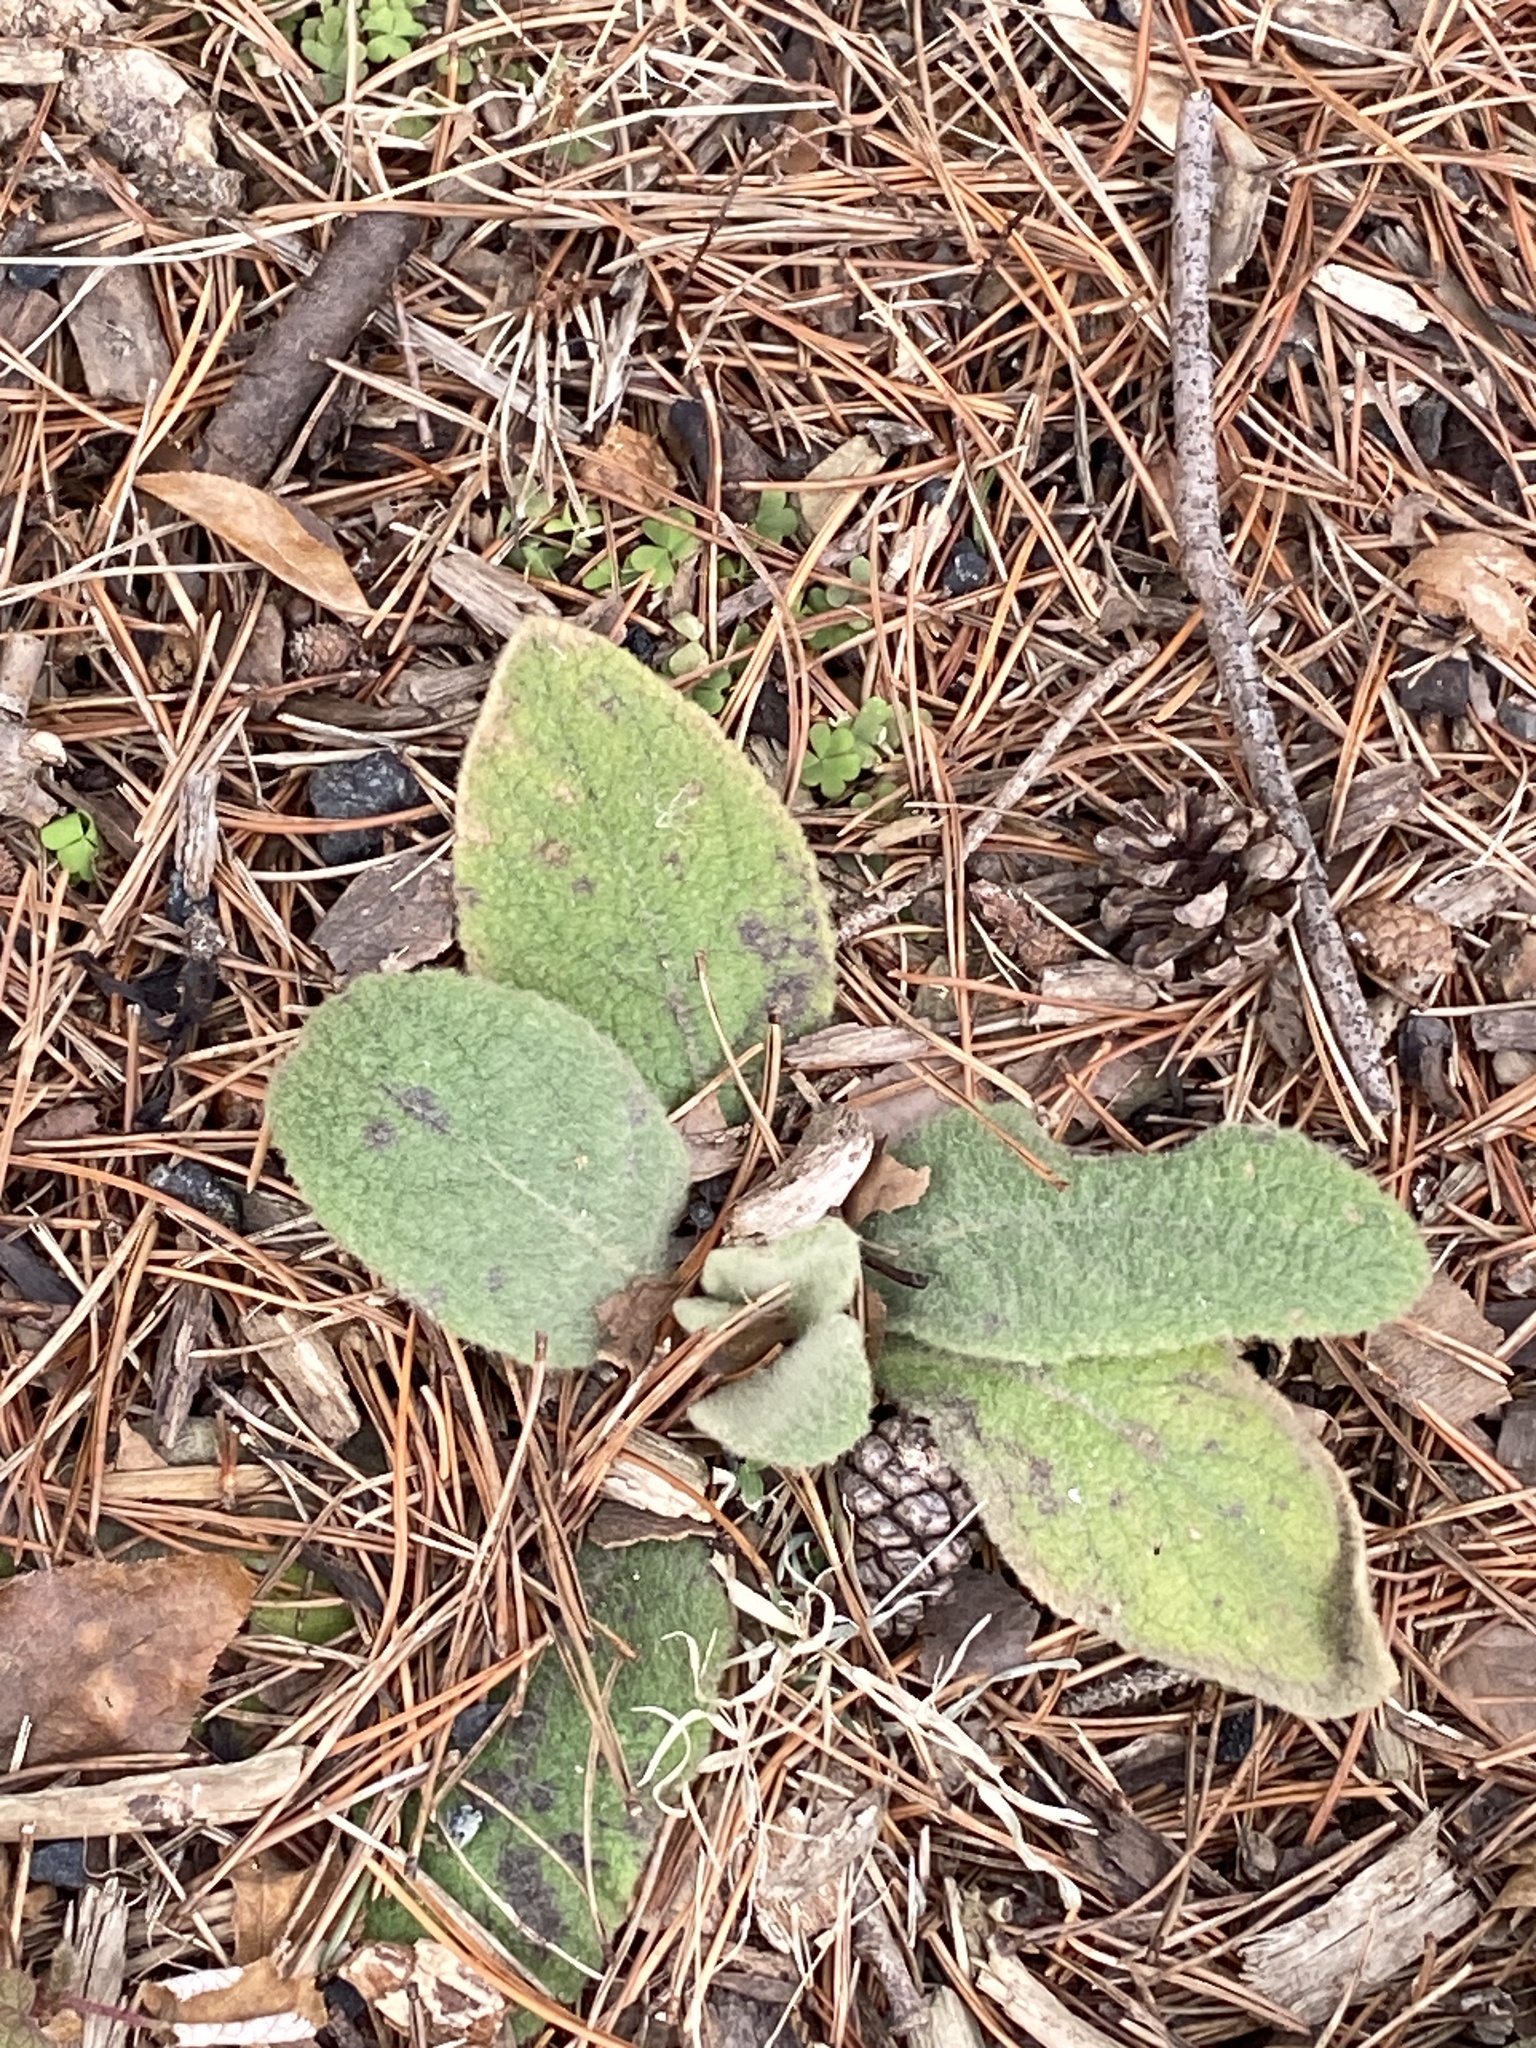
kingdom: Plantae
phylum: Tracheophyta
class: Magnoliopsida
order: Lamiales
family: Scrophulariaceae
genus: Verbascum
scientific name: Verbascum thapsus
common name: Common mullein
